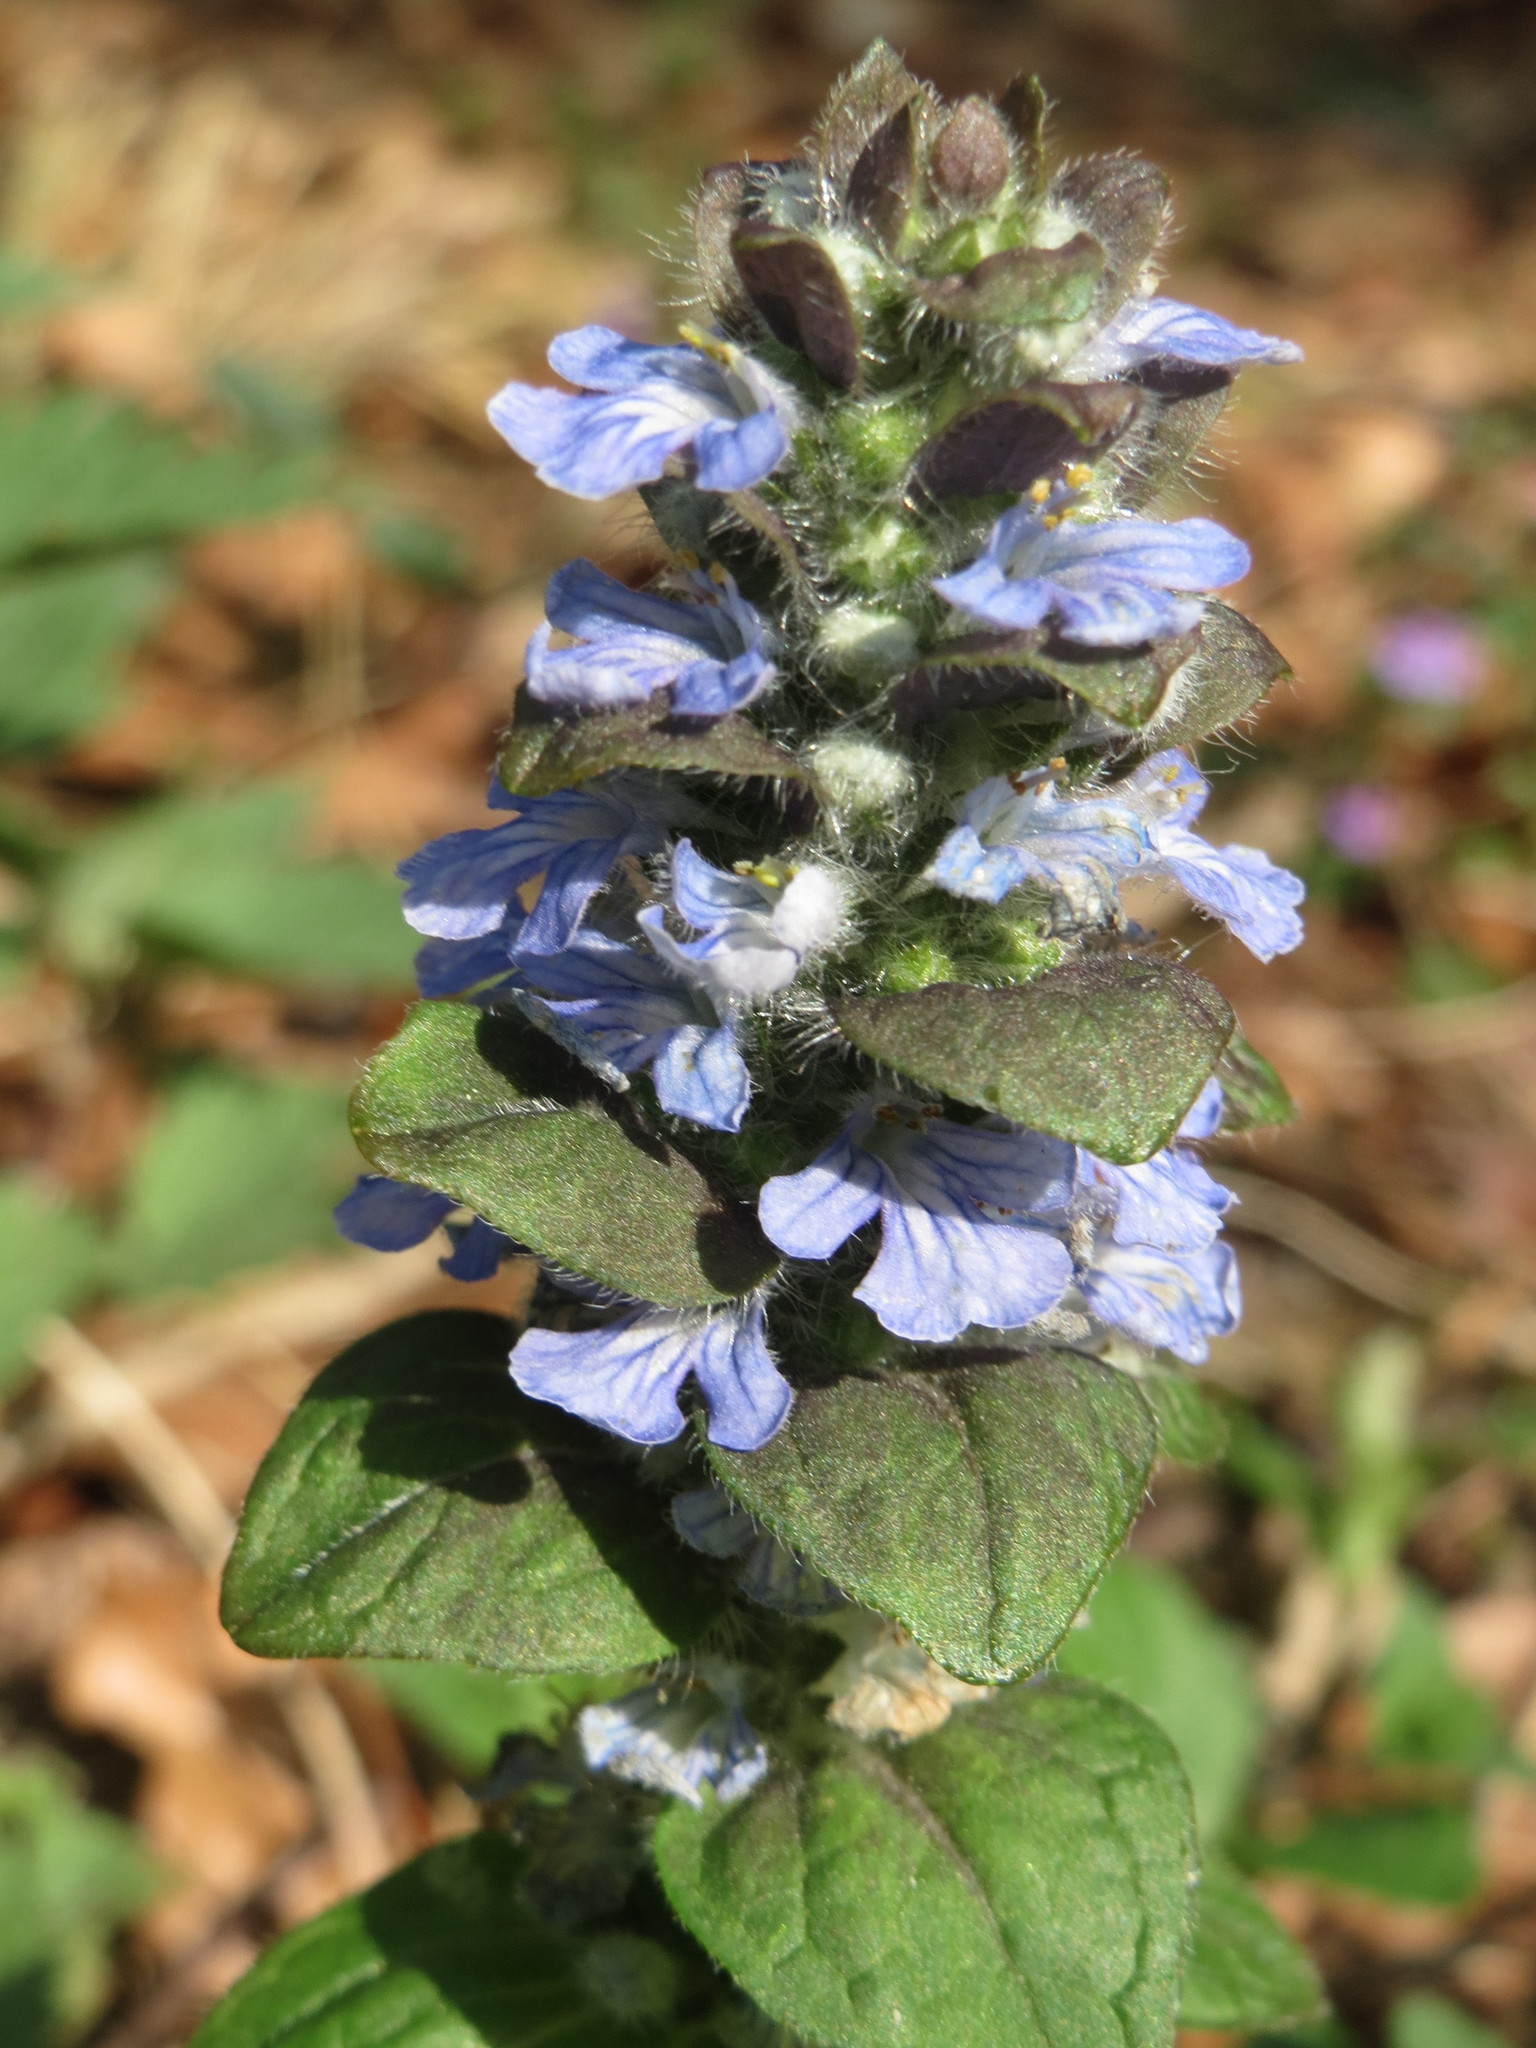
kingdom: Plantae
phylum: Tracheophyta
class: Magnoliopsida
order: Lamiales
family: Lamiaceae
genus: Ajuga
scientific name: Ajuga reptans
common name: Bugle
